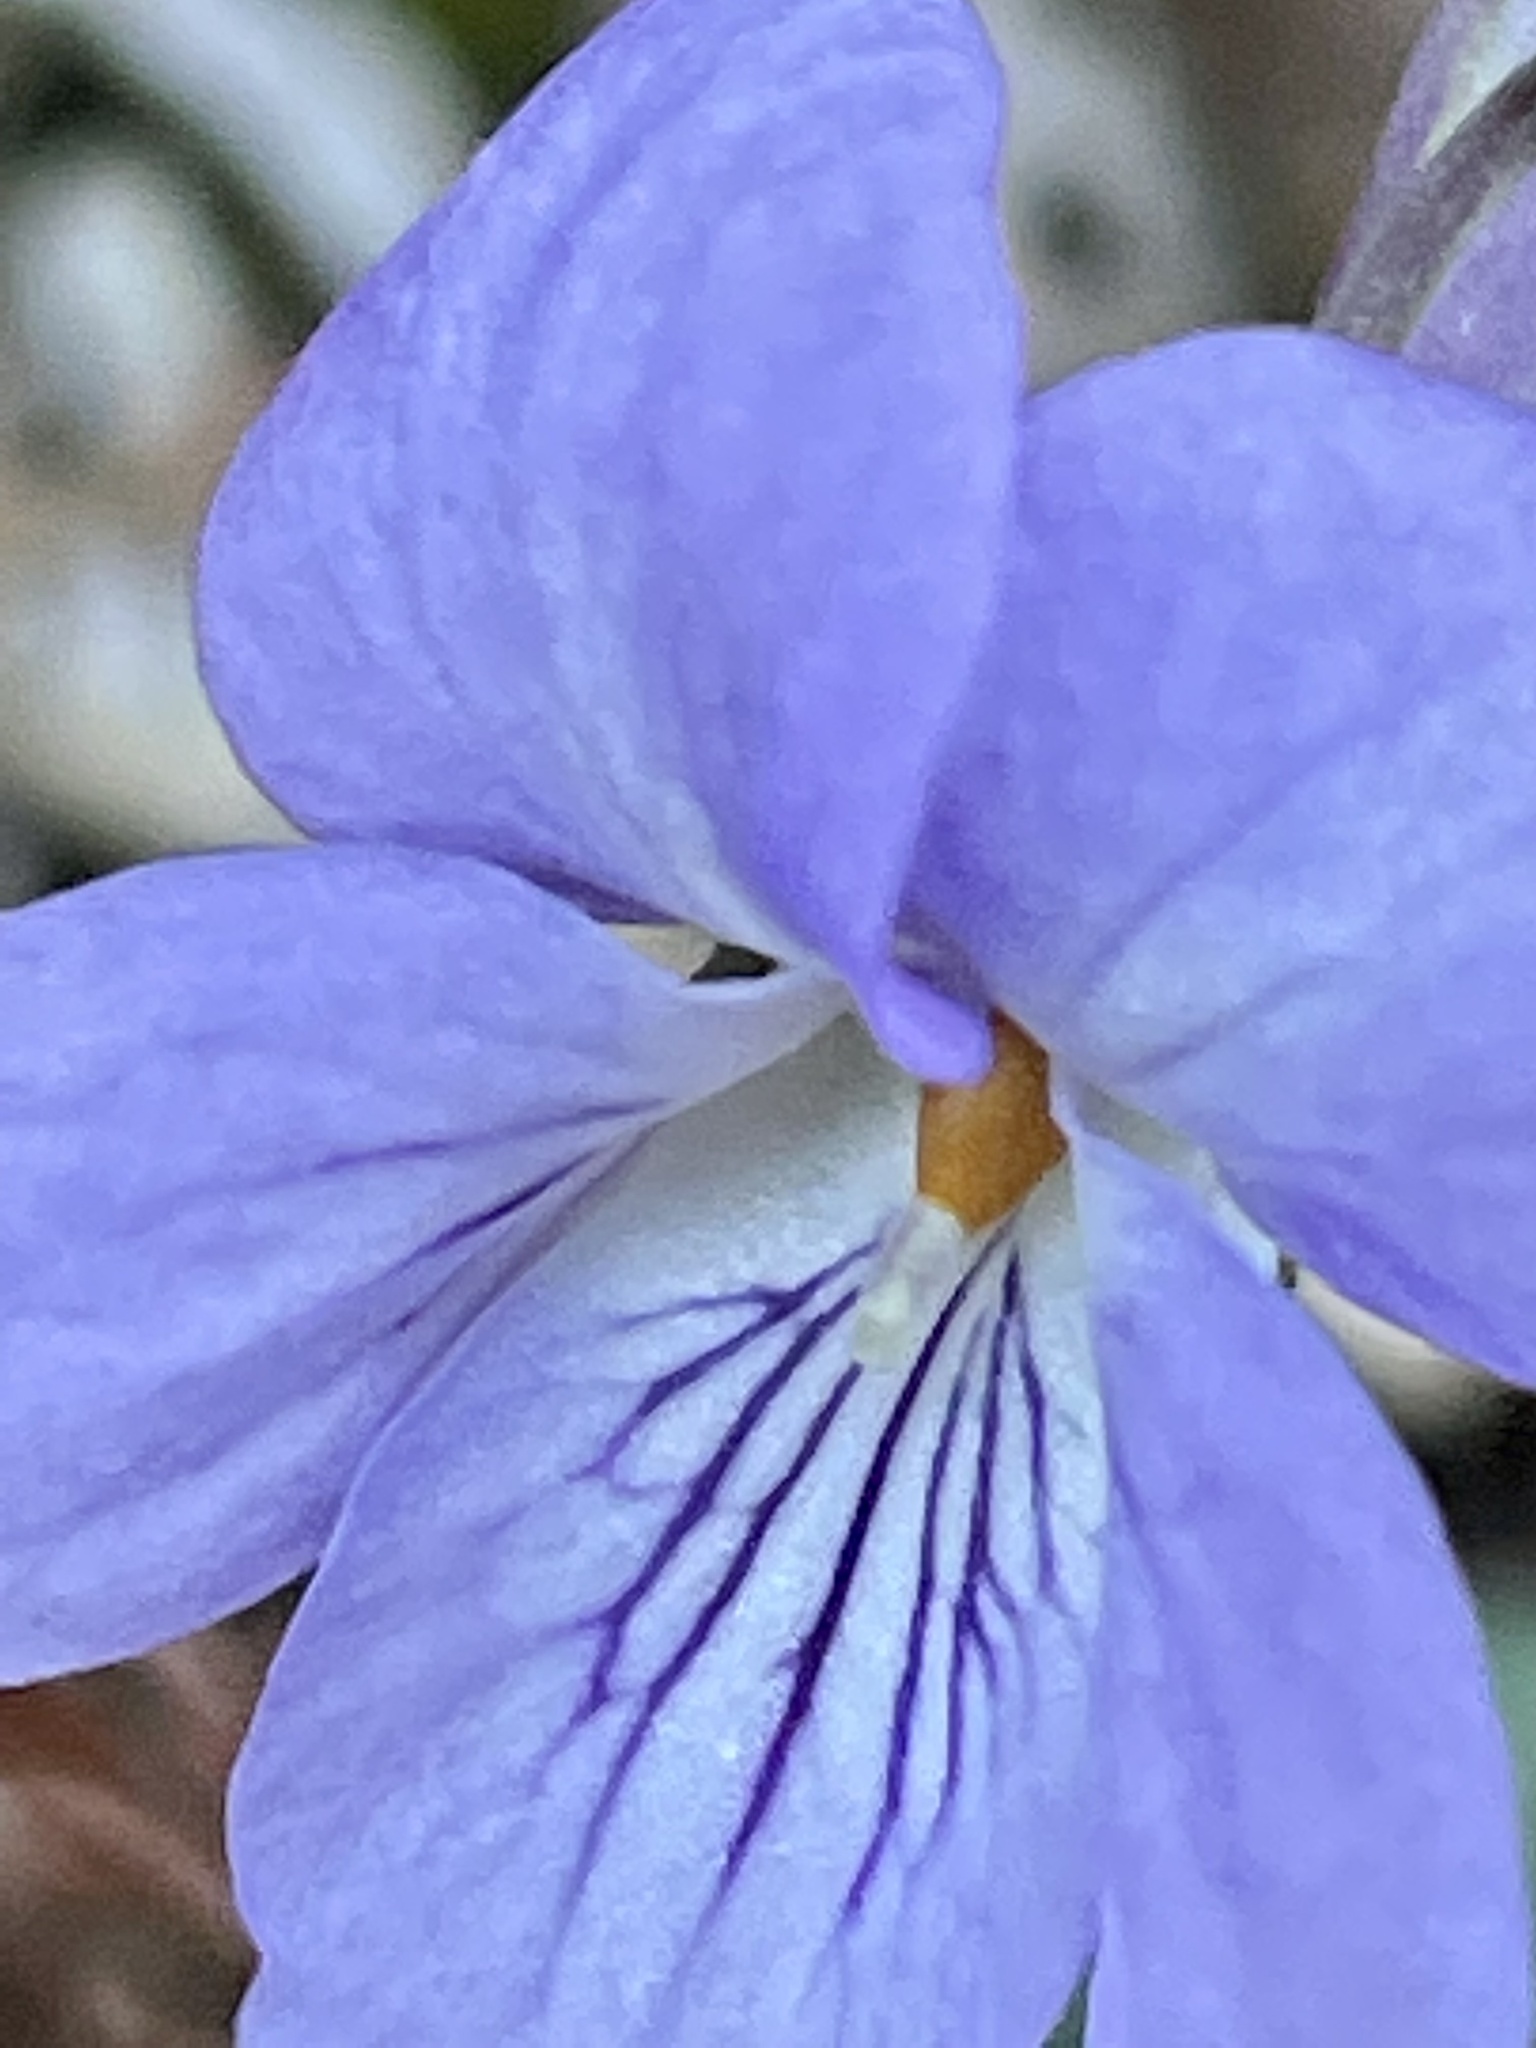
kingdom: Plantae
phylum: Tracheophyta
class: Magnoliopsida
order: Malpighiales
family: Violaceae
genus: Viola
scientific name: Viola grypoceras
